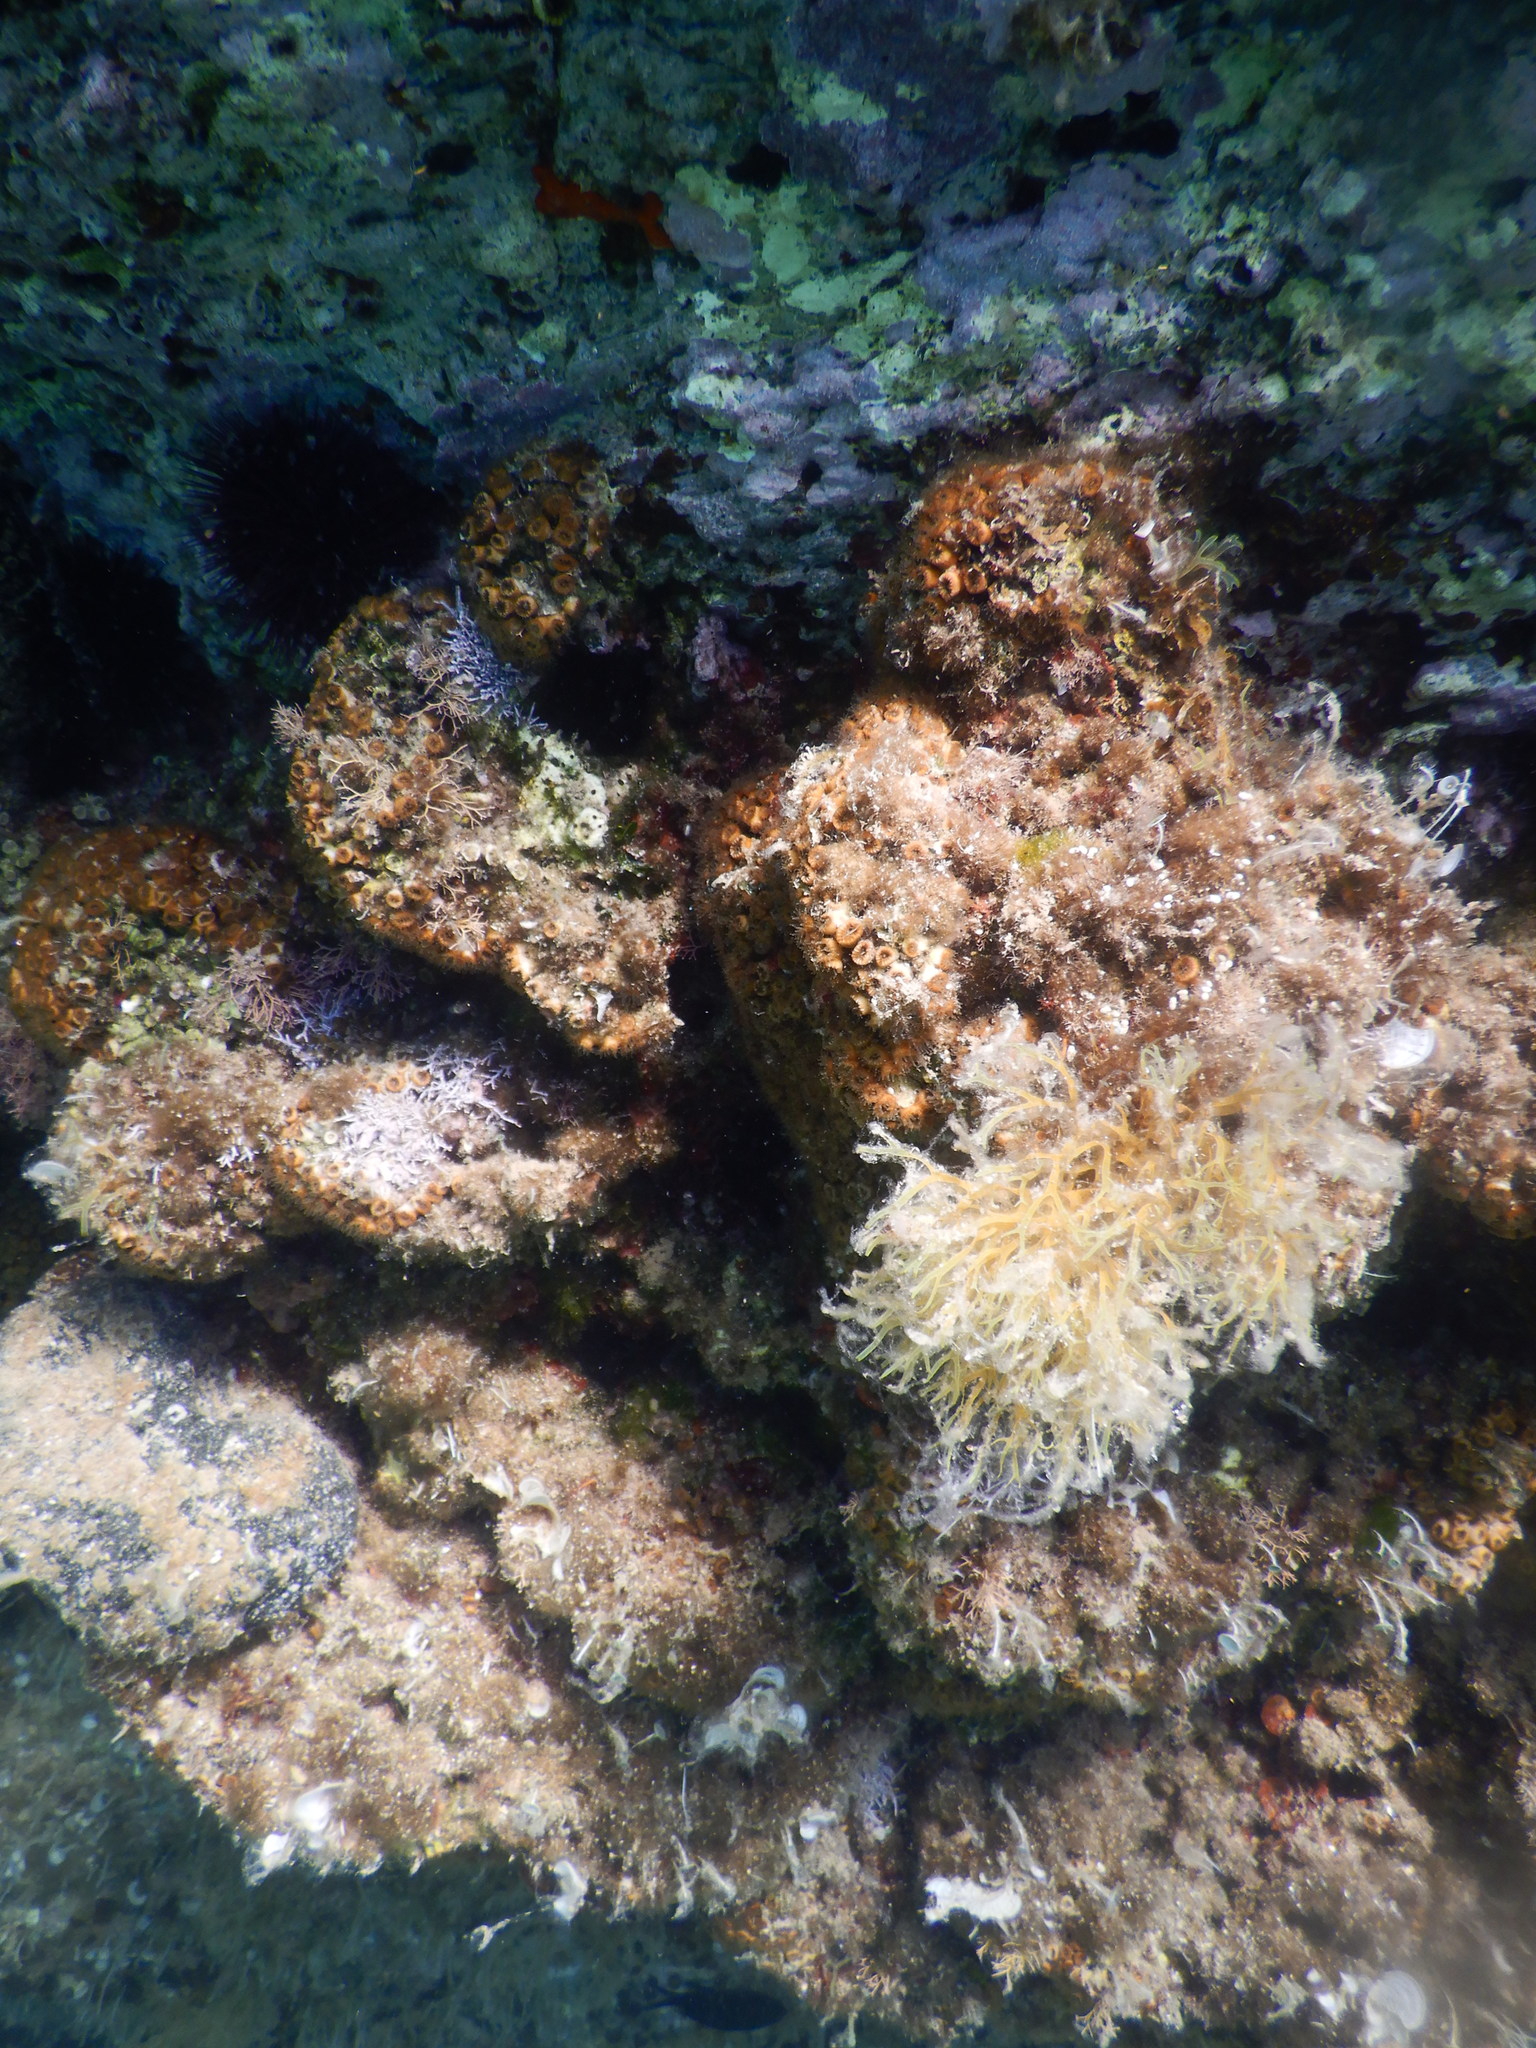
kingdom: Animalia
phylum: Cnidaria
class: Anthozoa
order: Scleractinia
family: Cladocoridae
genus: Cladocora
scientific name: Cladocora caespitosa
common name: Cladocora
